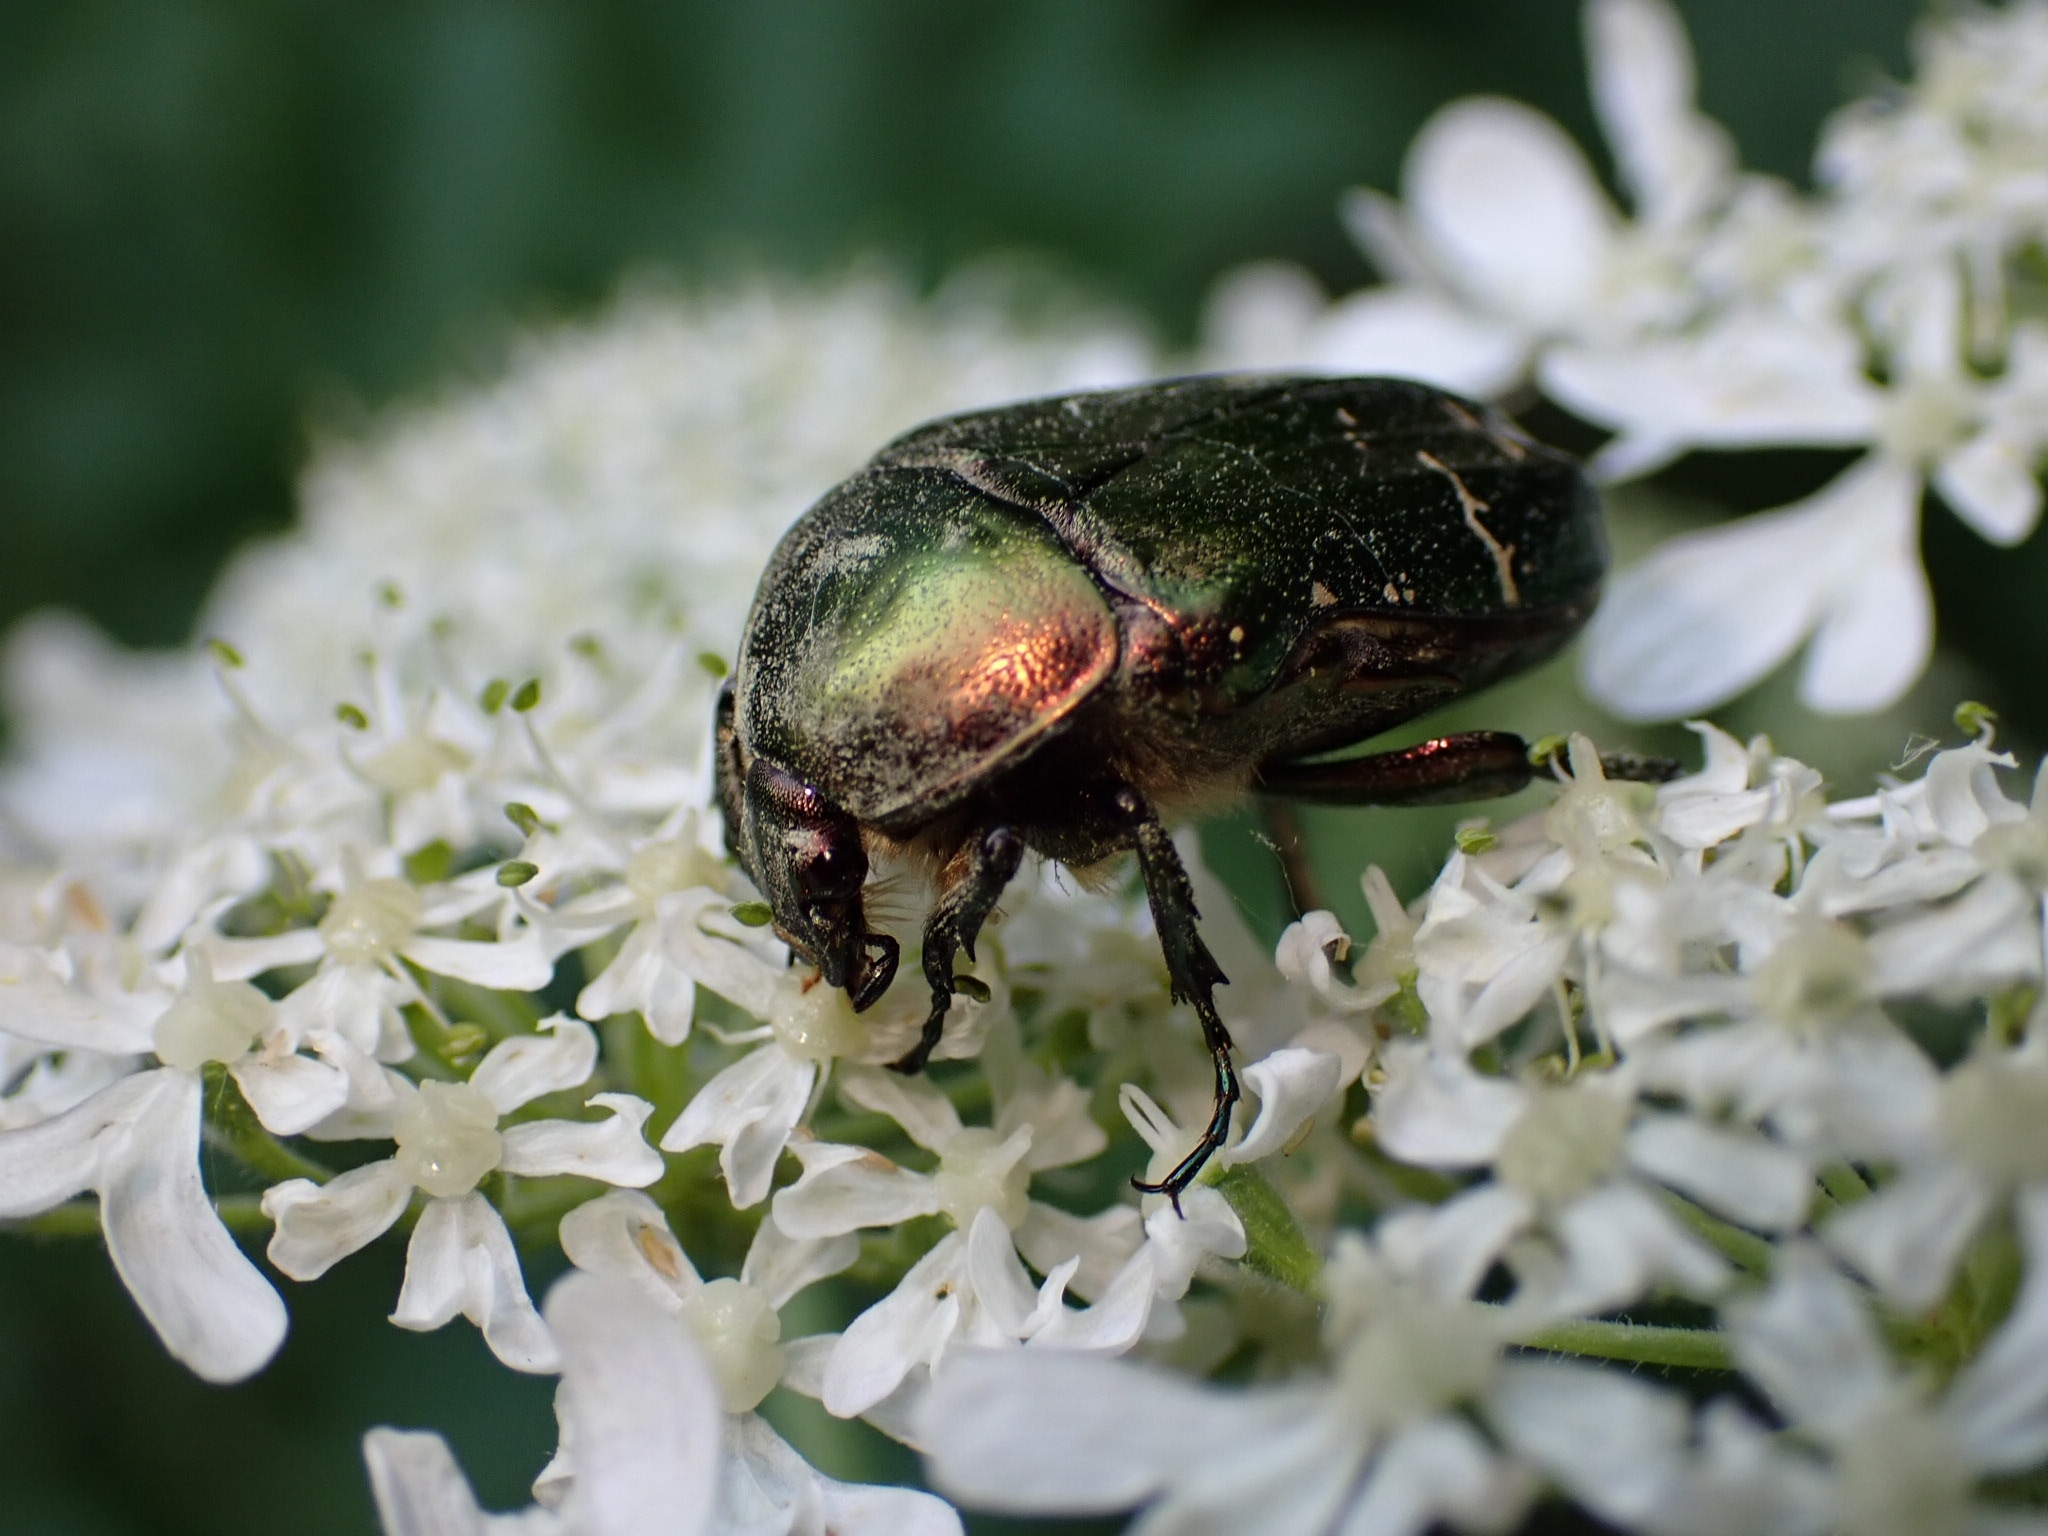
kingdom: Animalia
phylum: Arthropoda
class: Insecta
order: Coleoptera
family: Scarabaeidae
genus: Cetonia
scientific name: Cetonia aurata
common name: Rose chafer
